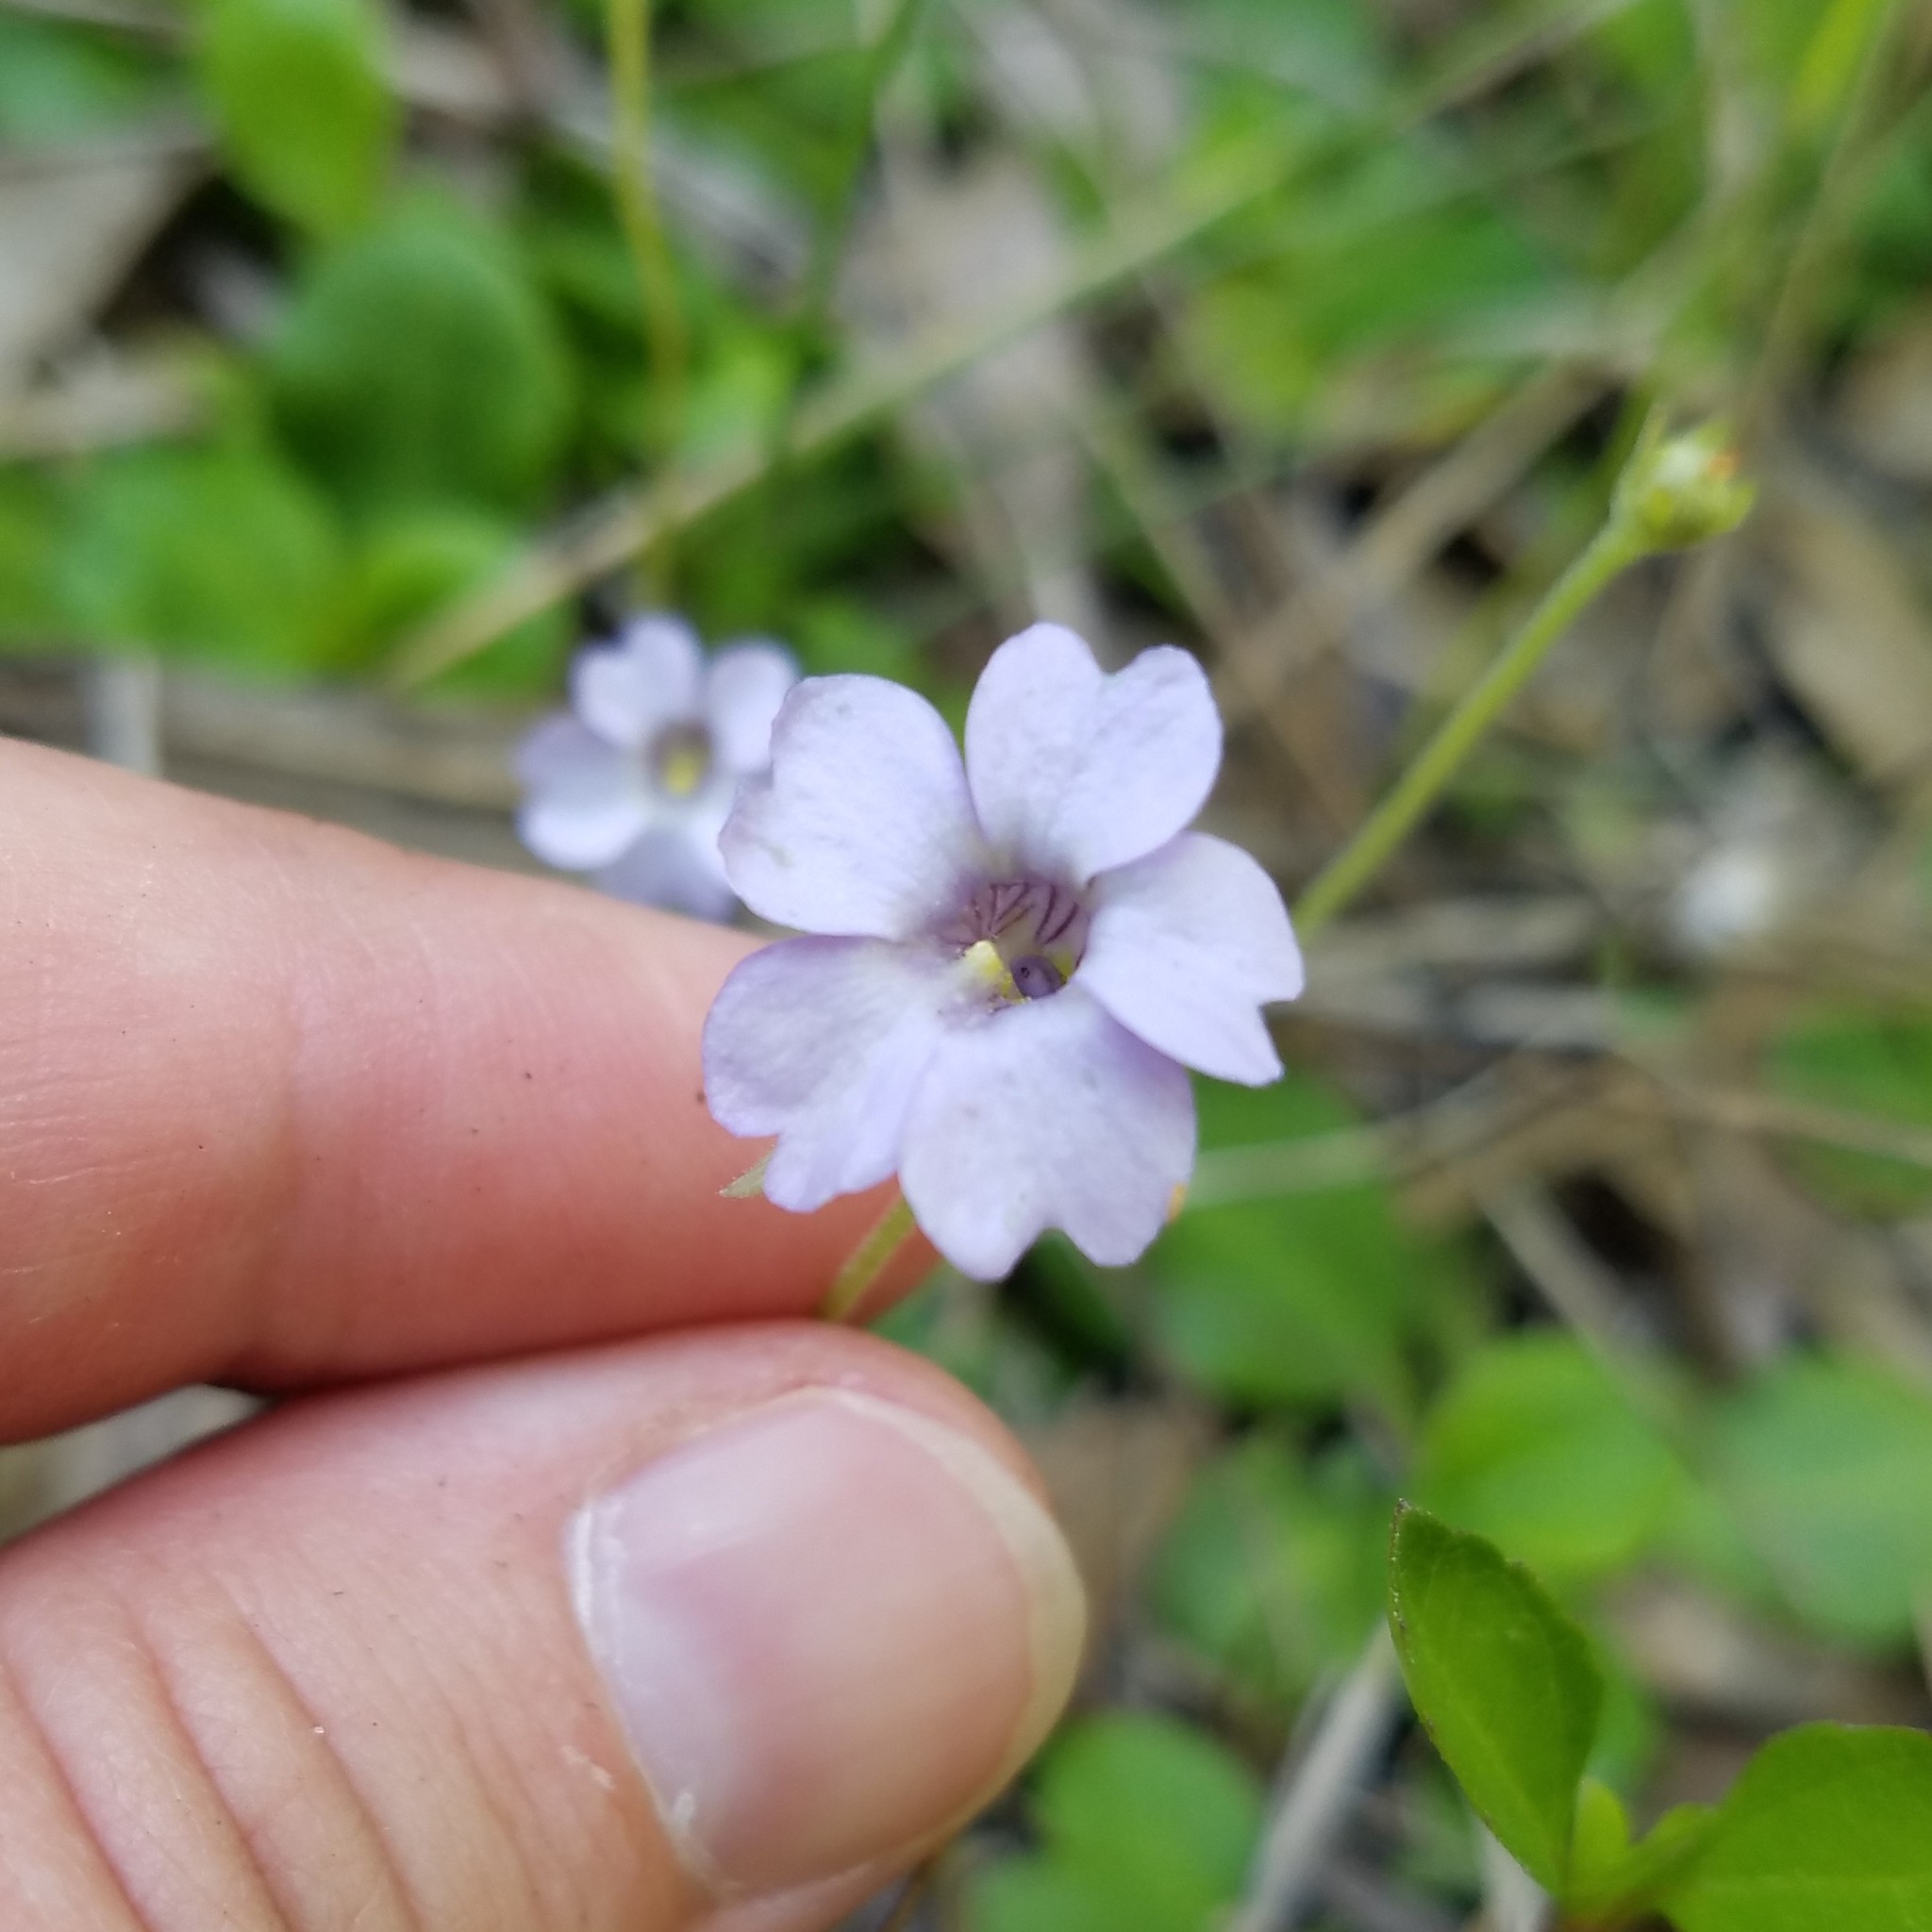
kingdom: Plantae
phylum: Tracheophyta
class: Magnoliopsida
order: Lamiales
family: Lentibulariaceae
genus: Pinguicula
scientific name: Pinguicula pumila
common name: Small butterwort
